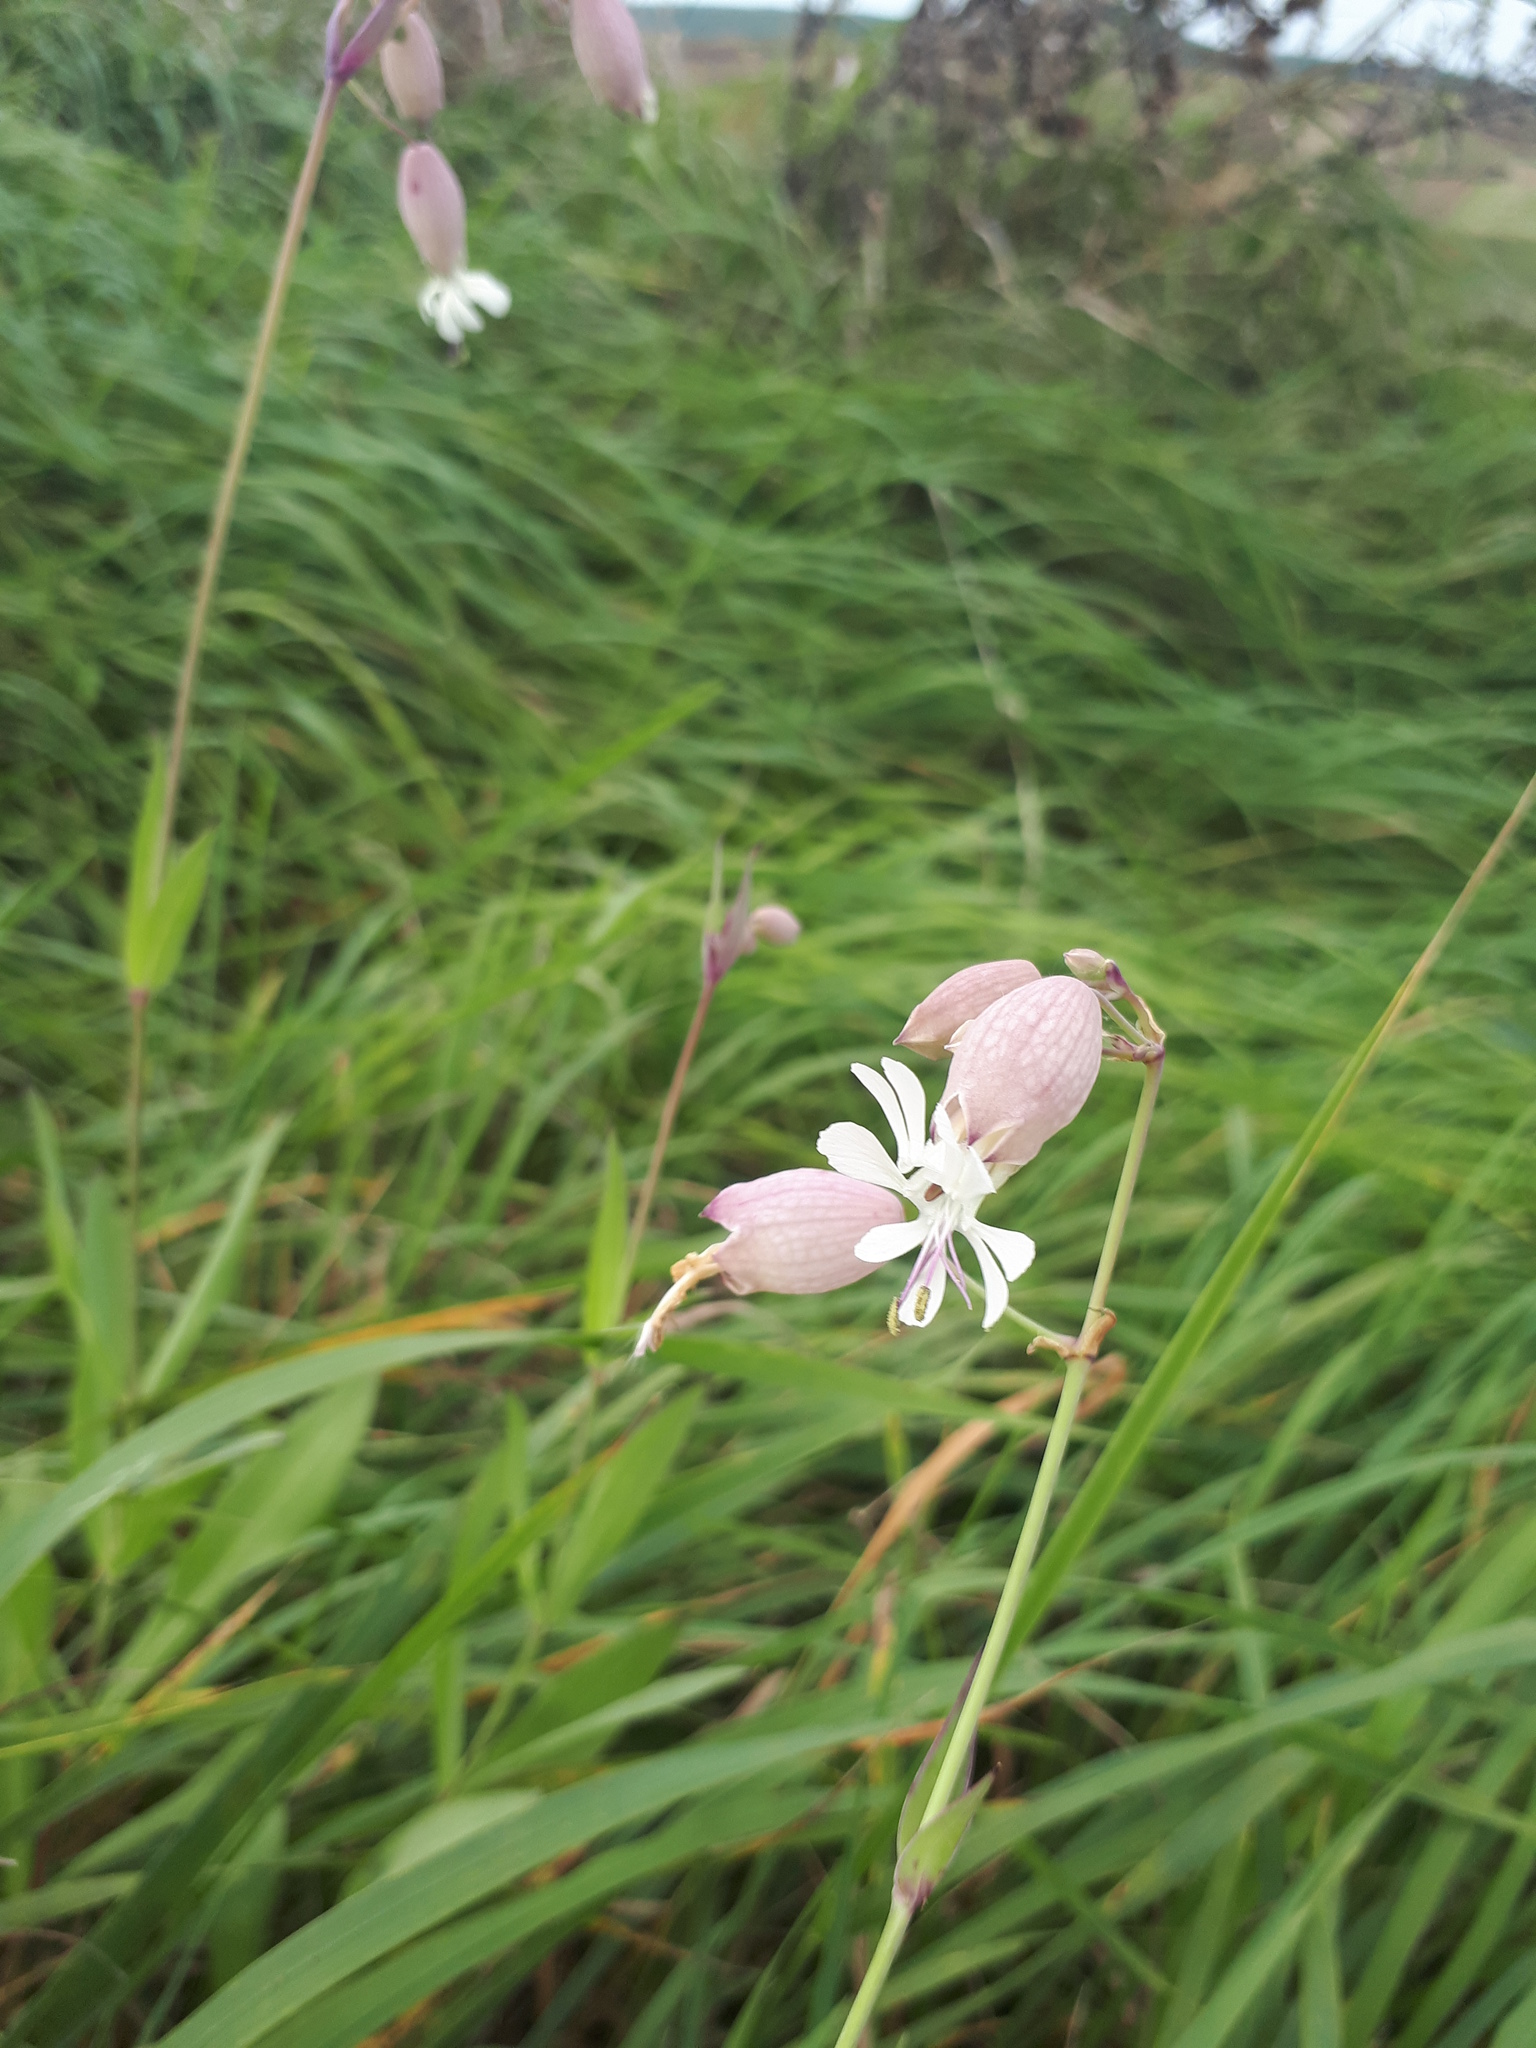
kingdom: Plantae
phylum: Tracheophyta
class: Magnoliopsida
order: Caryophyllales
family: Caryophyllaceae
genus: Silene
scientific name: Silene vulgaris
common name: Bladder campion
